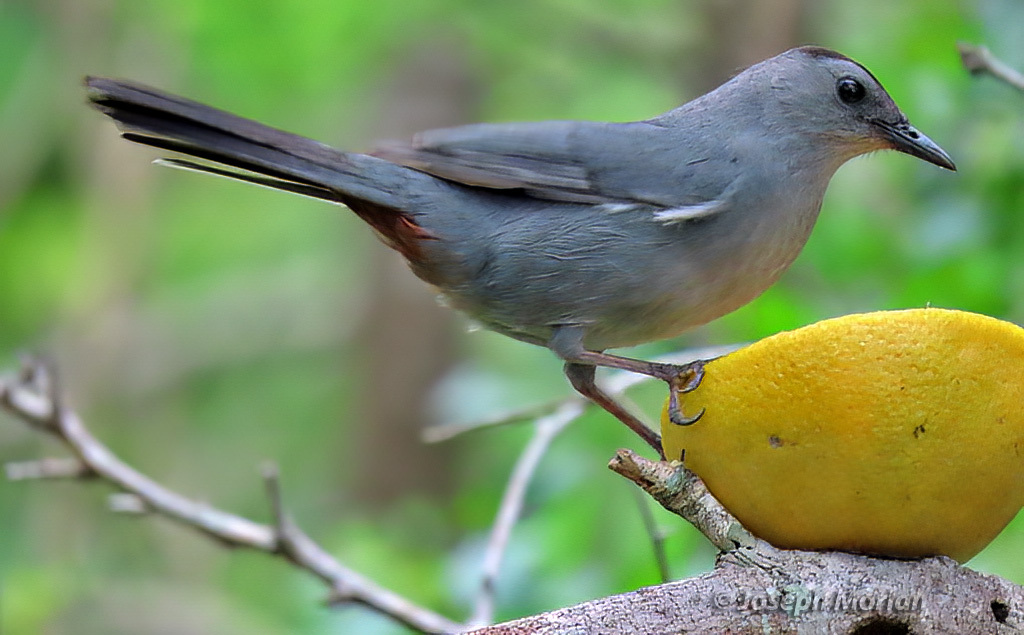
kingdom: Animalia
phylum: Chordata
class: Aves
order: Passeriformes
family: Mimidae
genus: Dumetella
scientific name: Dumetella carolinensis
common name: Gray catbird
